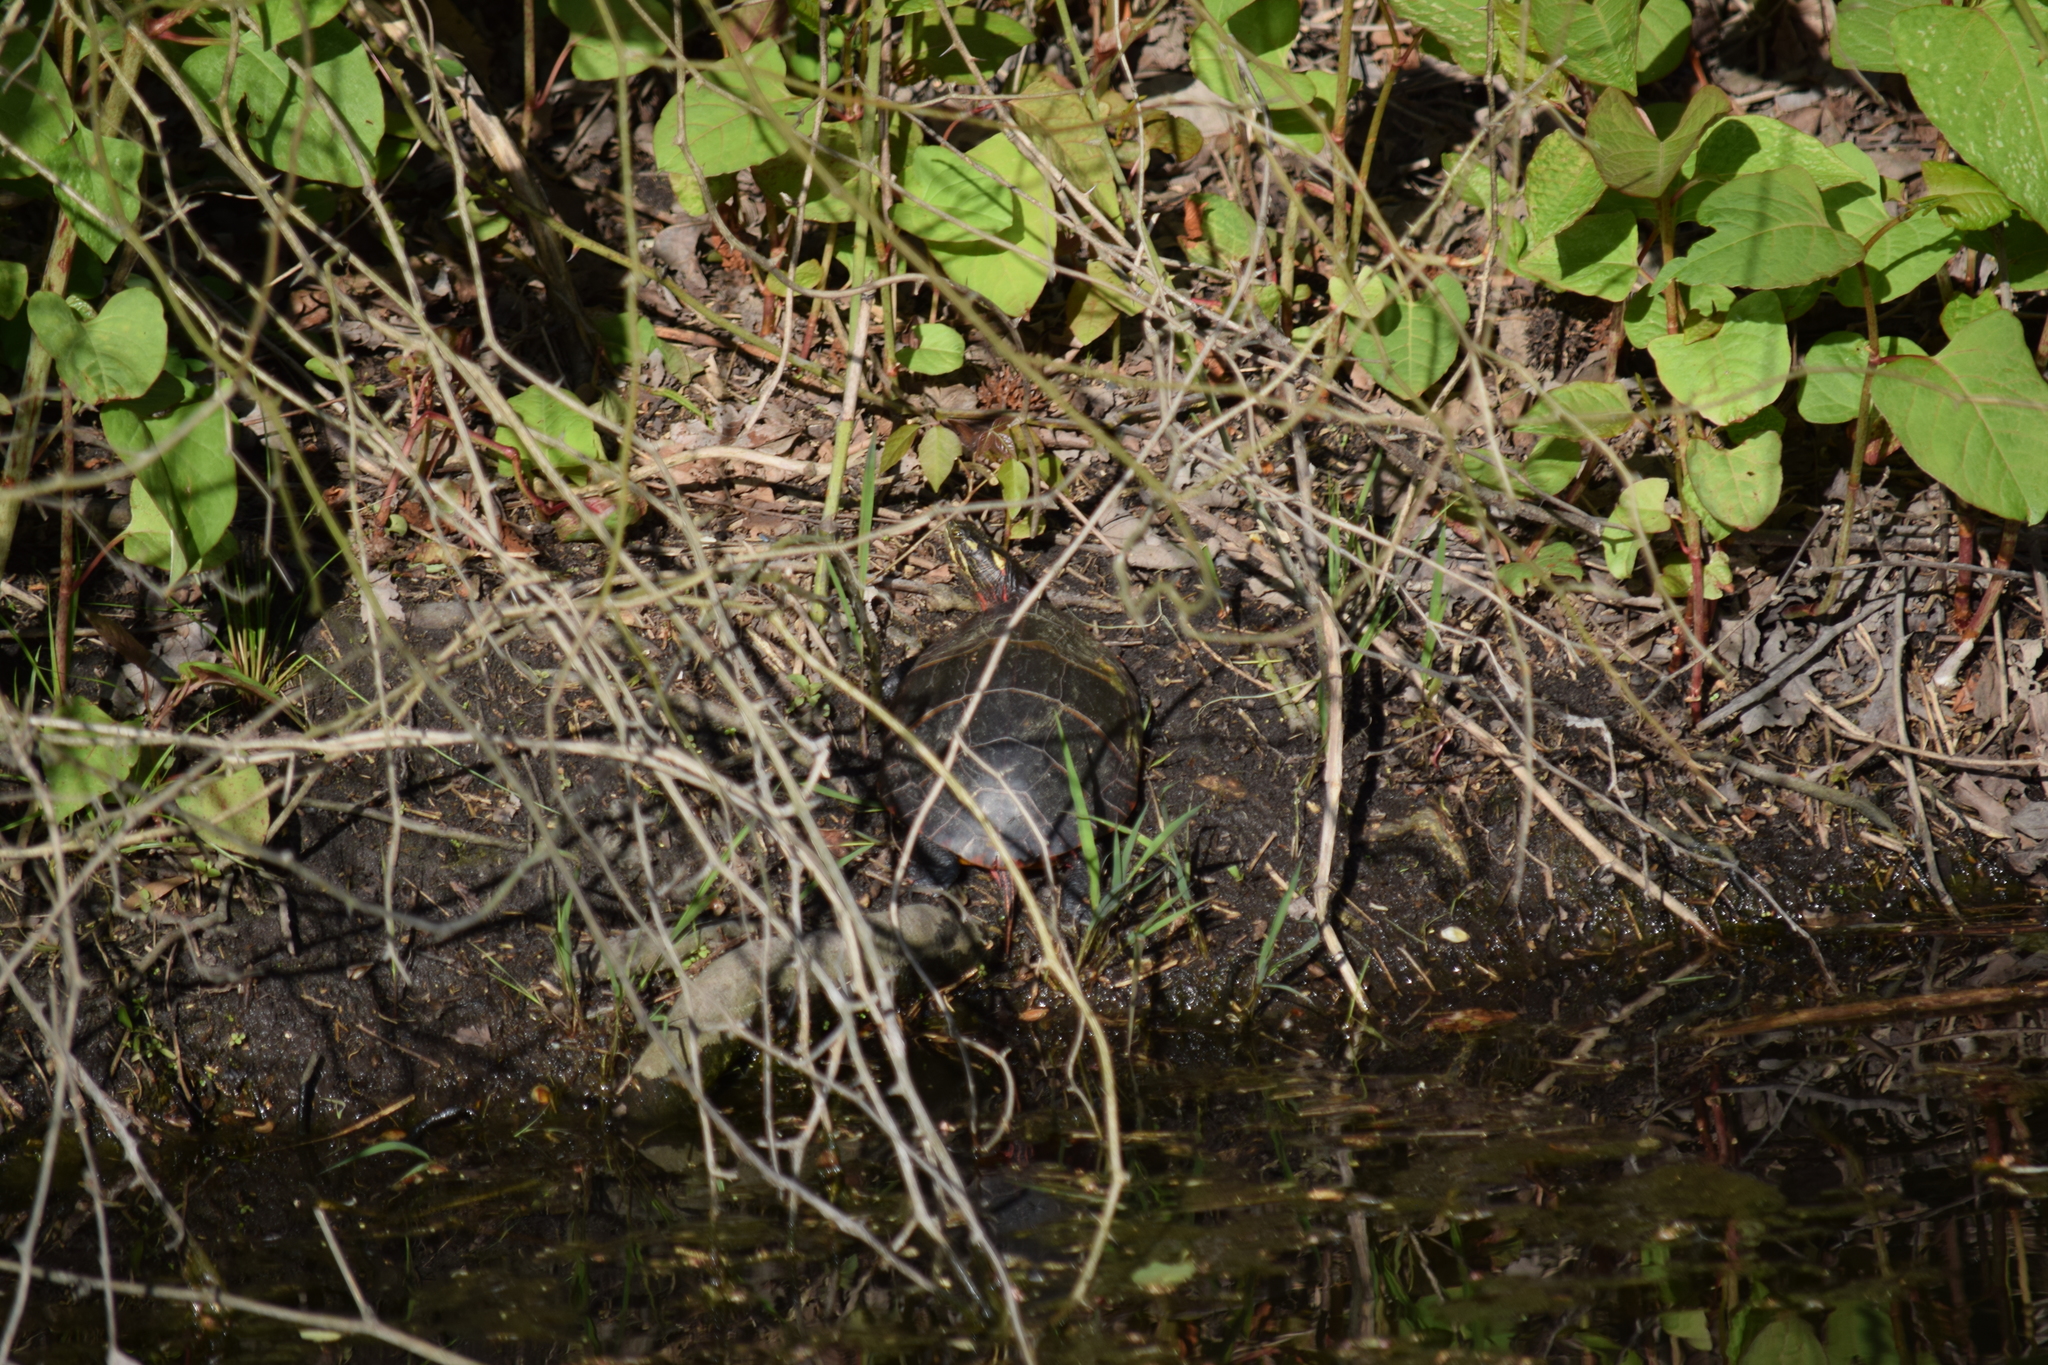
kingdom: Animalia
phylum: Chordata
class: Testudines
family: Emydidae
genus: Chrysemys
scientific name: Chrysemys picta
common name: Painted turtle
